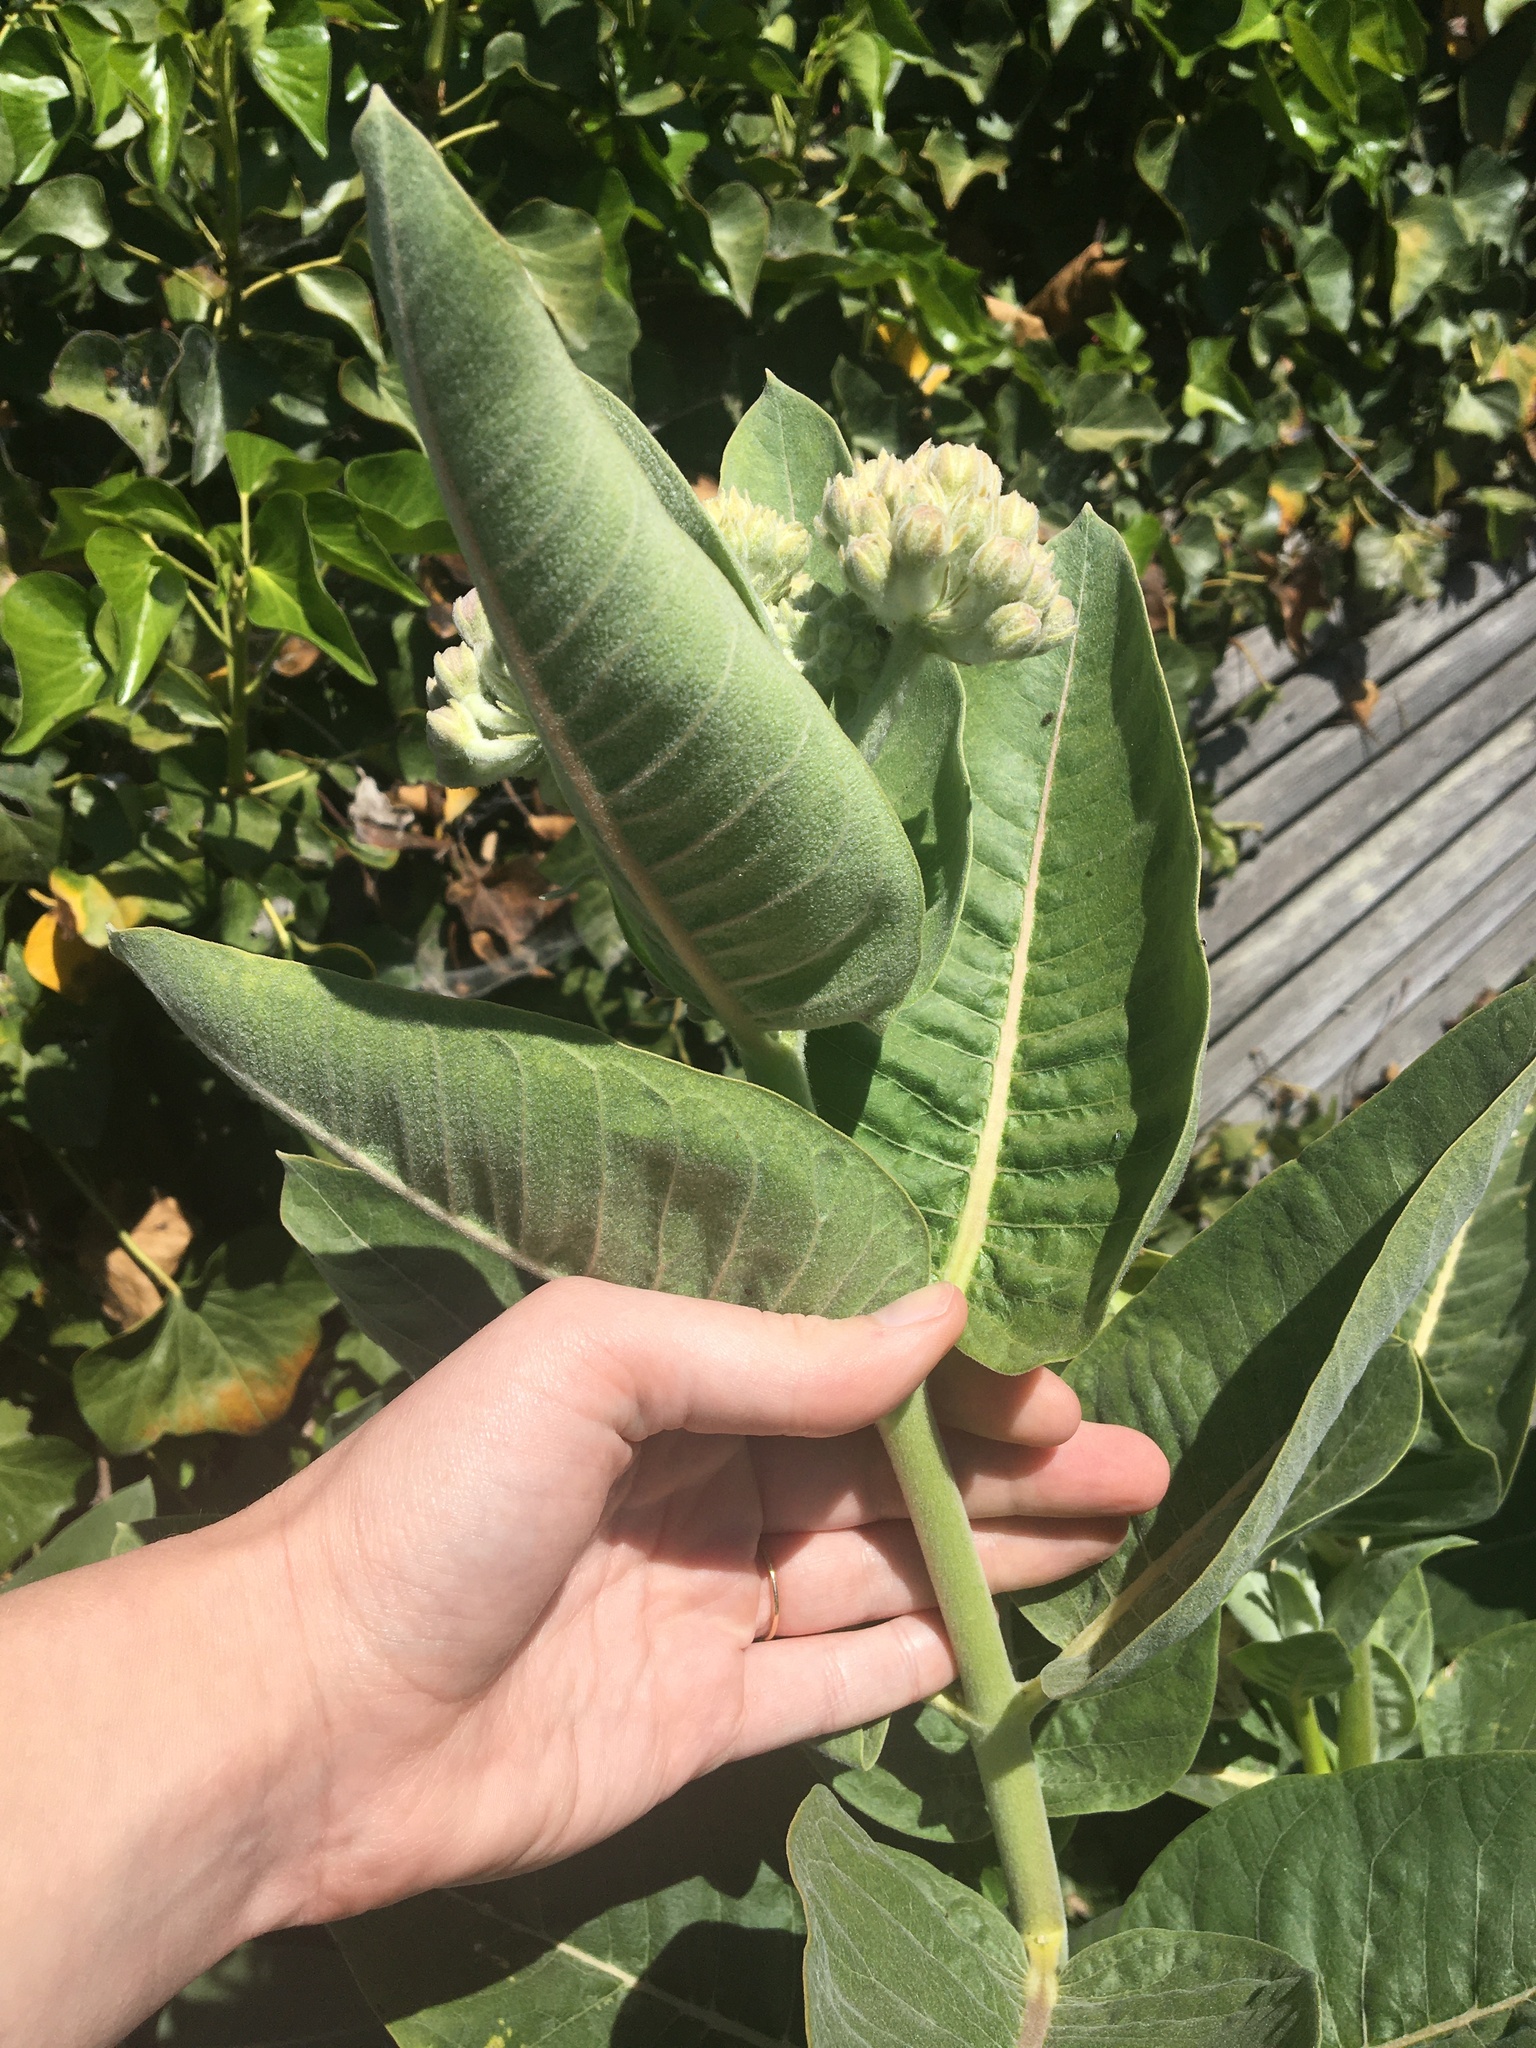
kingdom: Plantae
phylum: Tracheophyta
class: Magnoliopsida
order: Gentianales
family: Apocynaceae
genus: Asclepias
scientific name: Asclepias speciosa
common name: Showy milkweed
